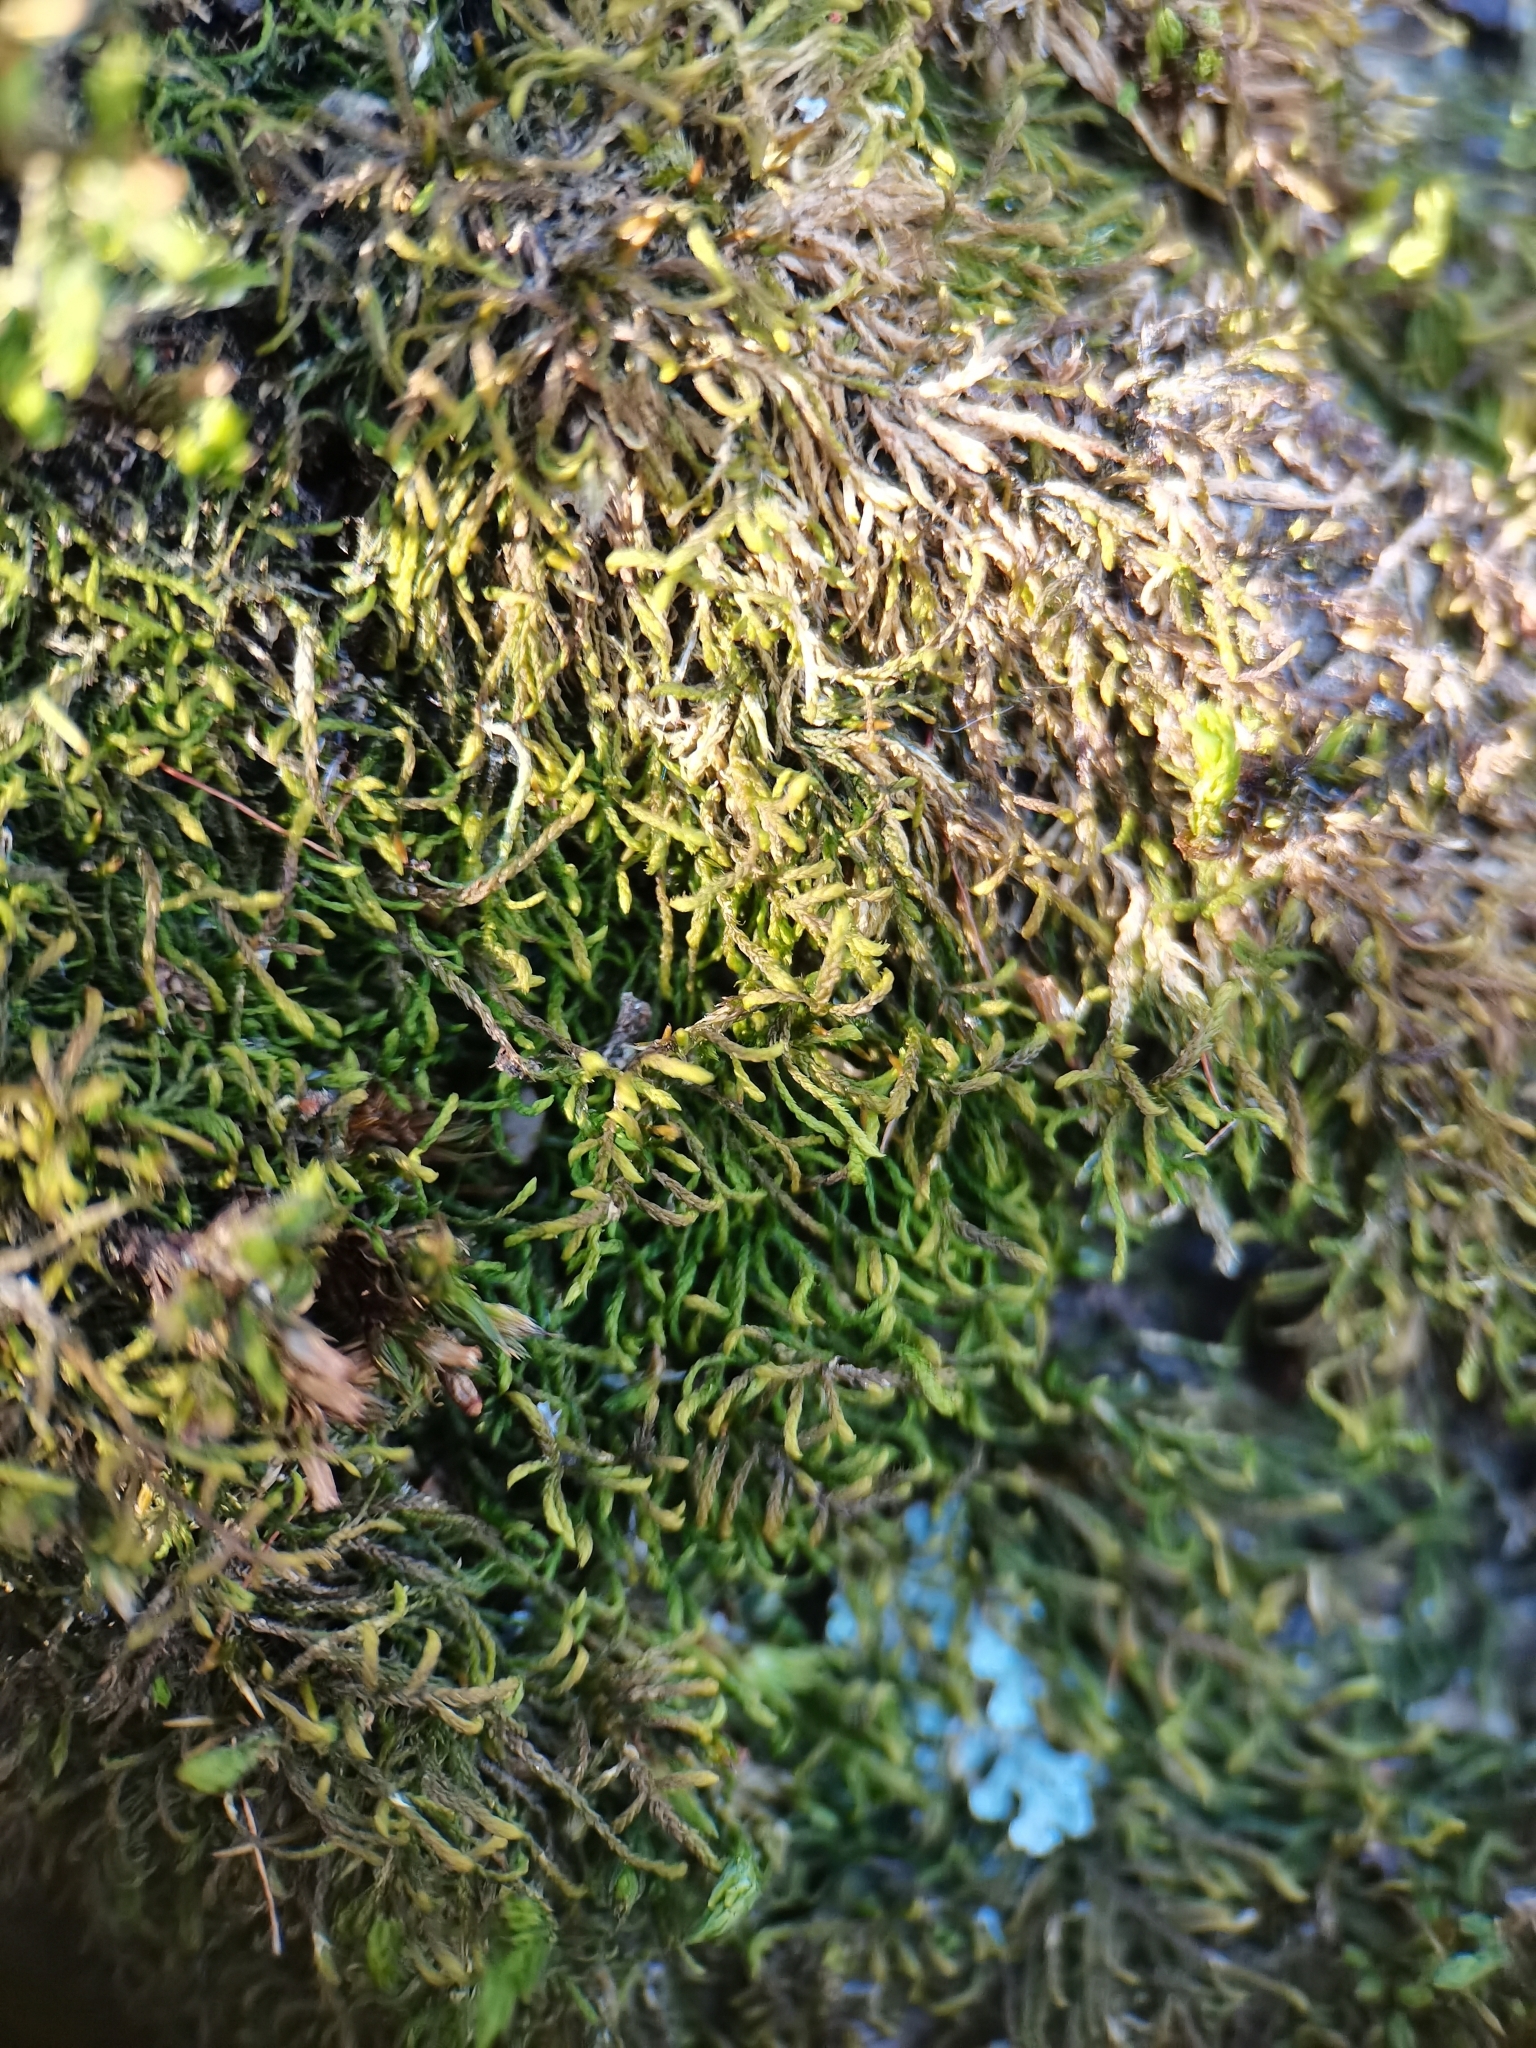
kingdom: Plantae
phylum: Bryophyta
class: Bryopsida
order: Hypnales
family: Leskeaceae
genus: Leskea
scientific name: Leskea polycarpa
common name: Many-fruited leske's moss
